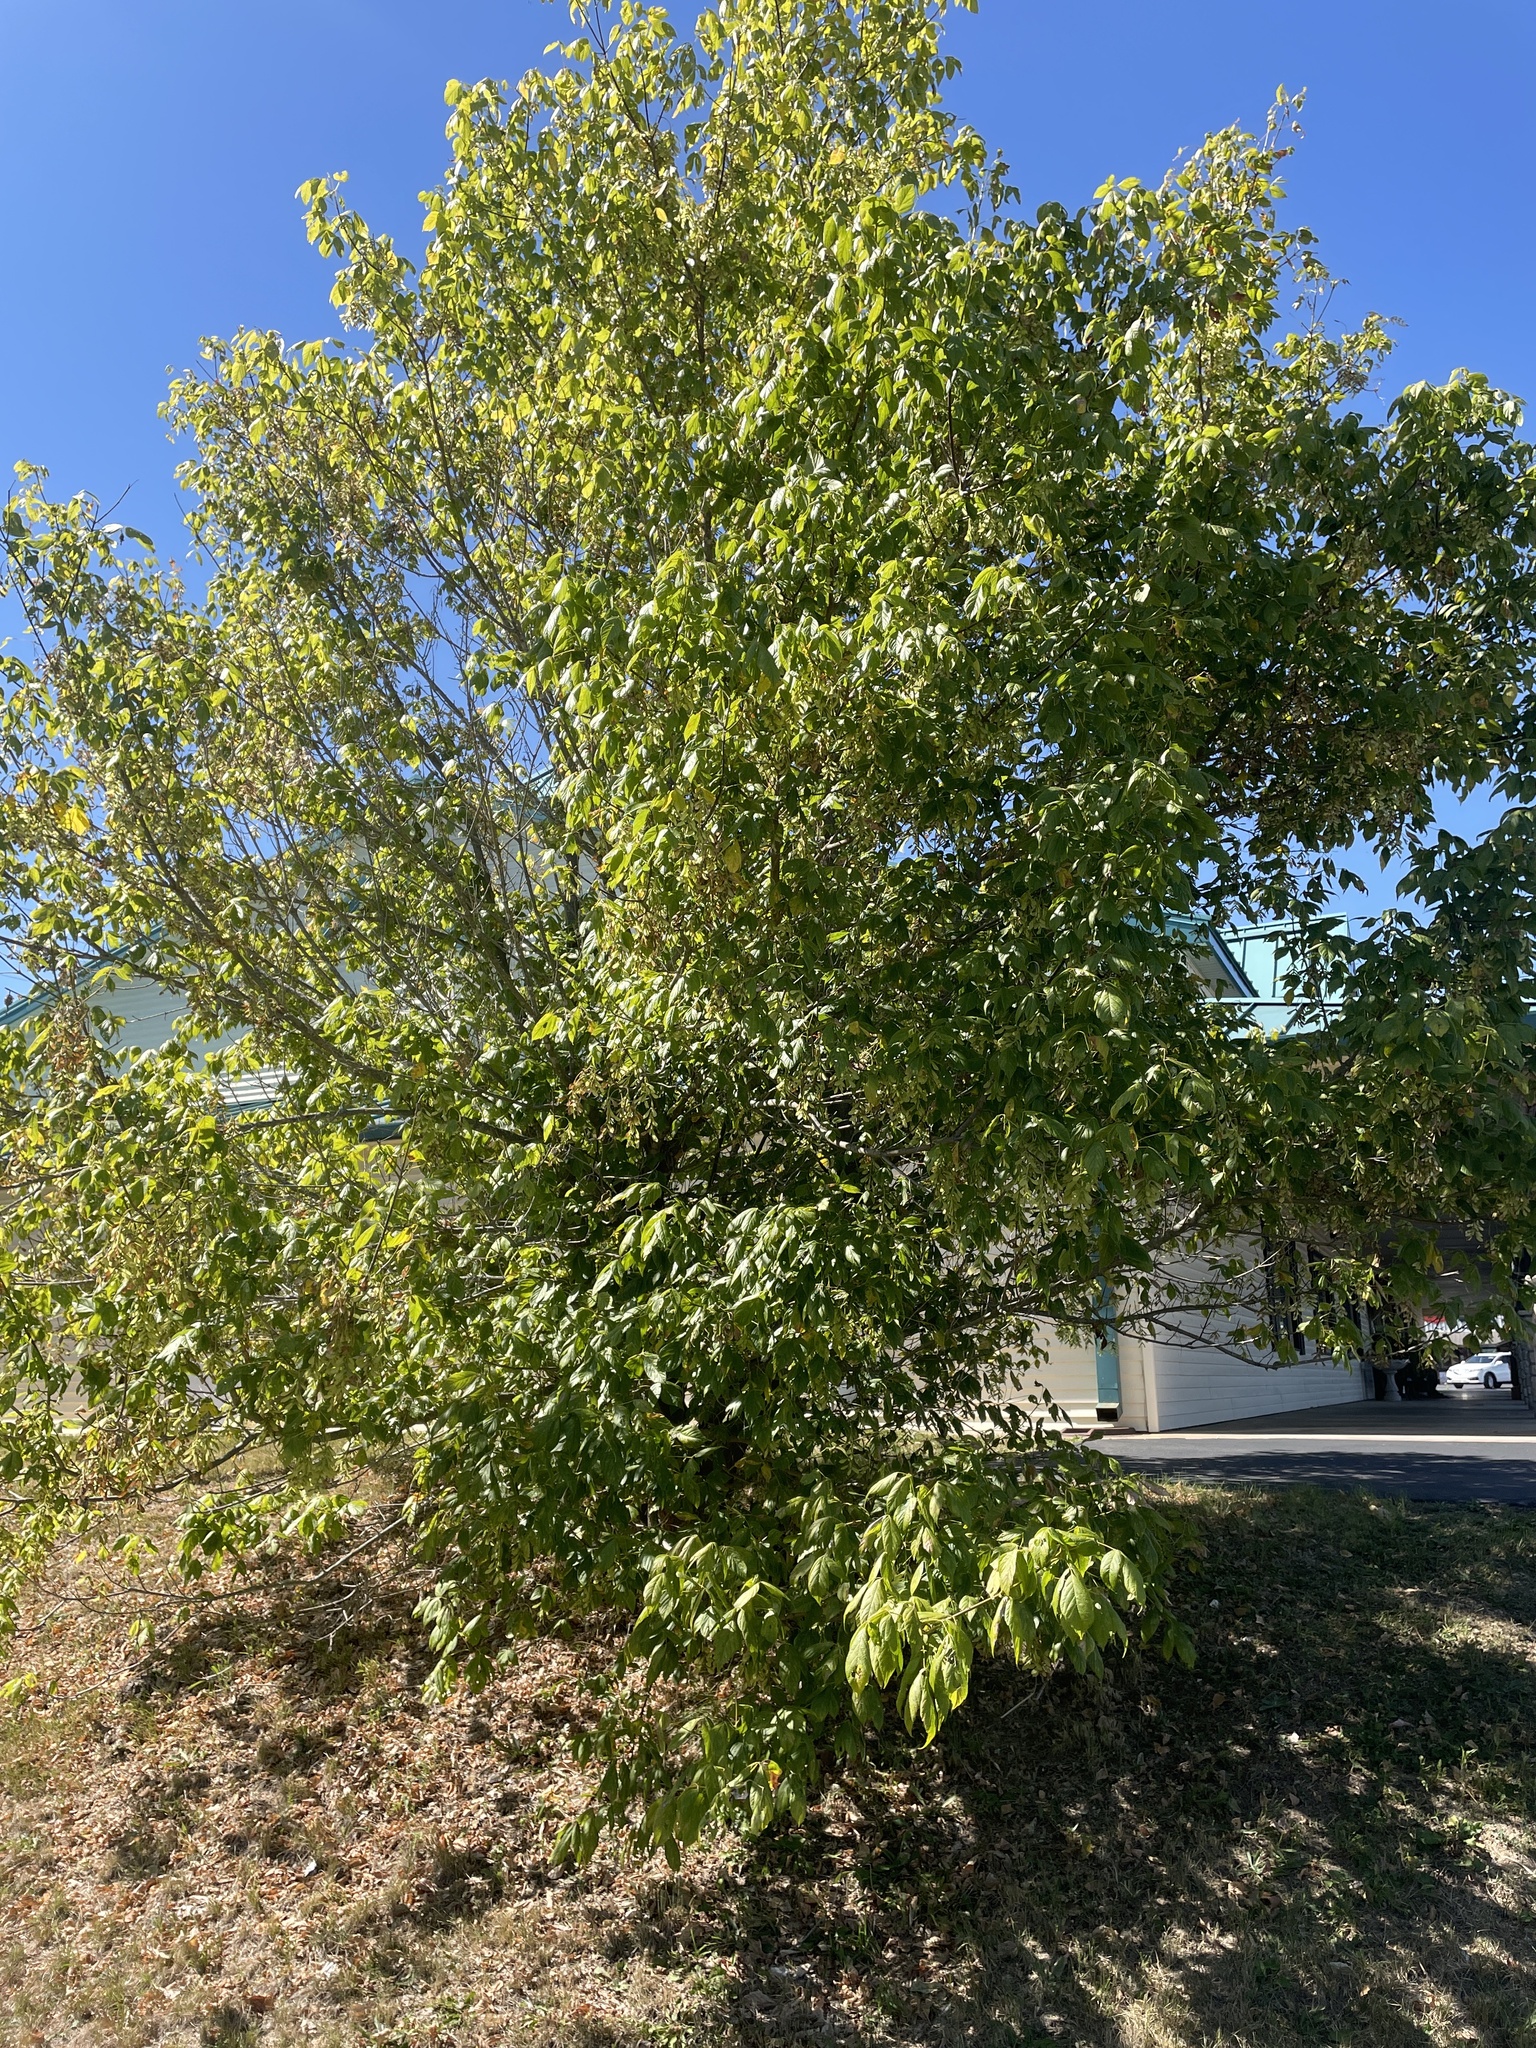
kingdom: Plantae
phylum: Tracheophyta
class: Magnoliopsida
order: Sapindales
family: Sapindaceae
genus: Acer
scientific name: Acer negundo
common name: Ashleaf maple
